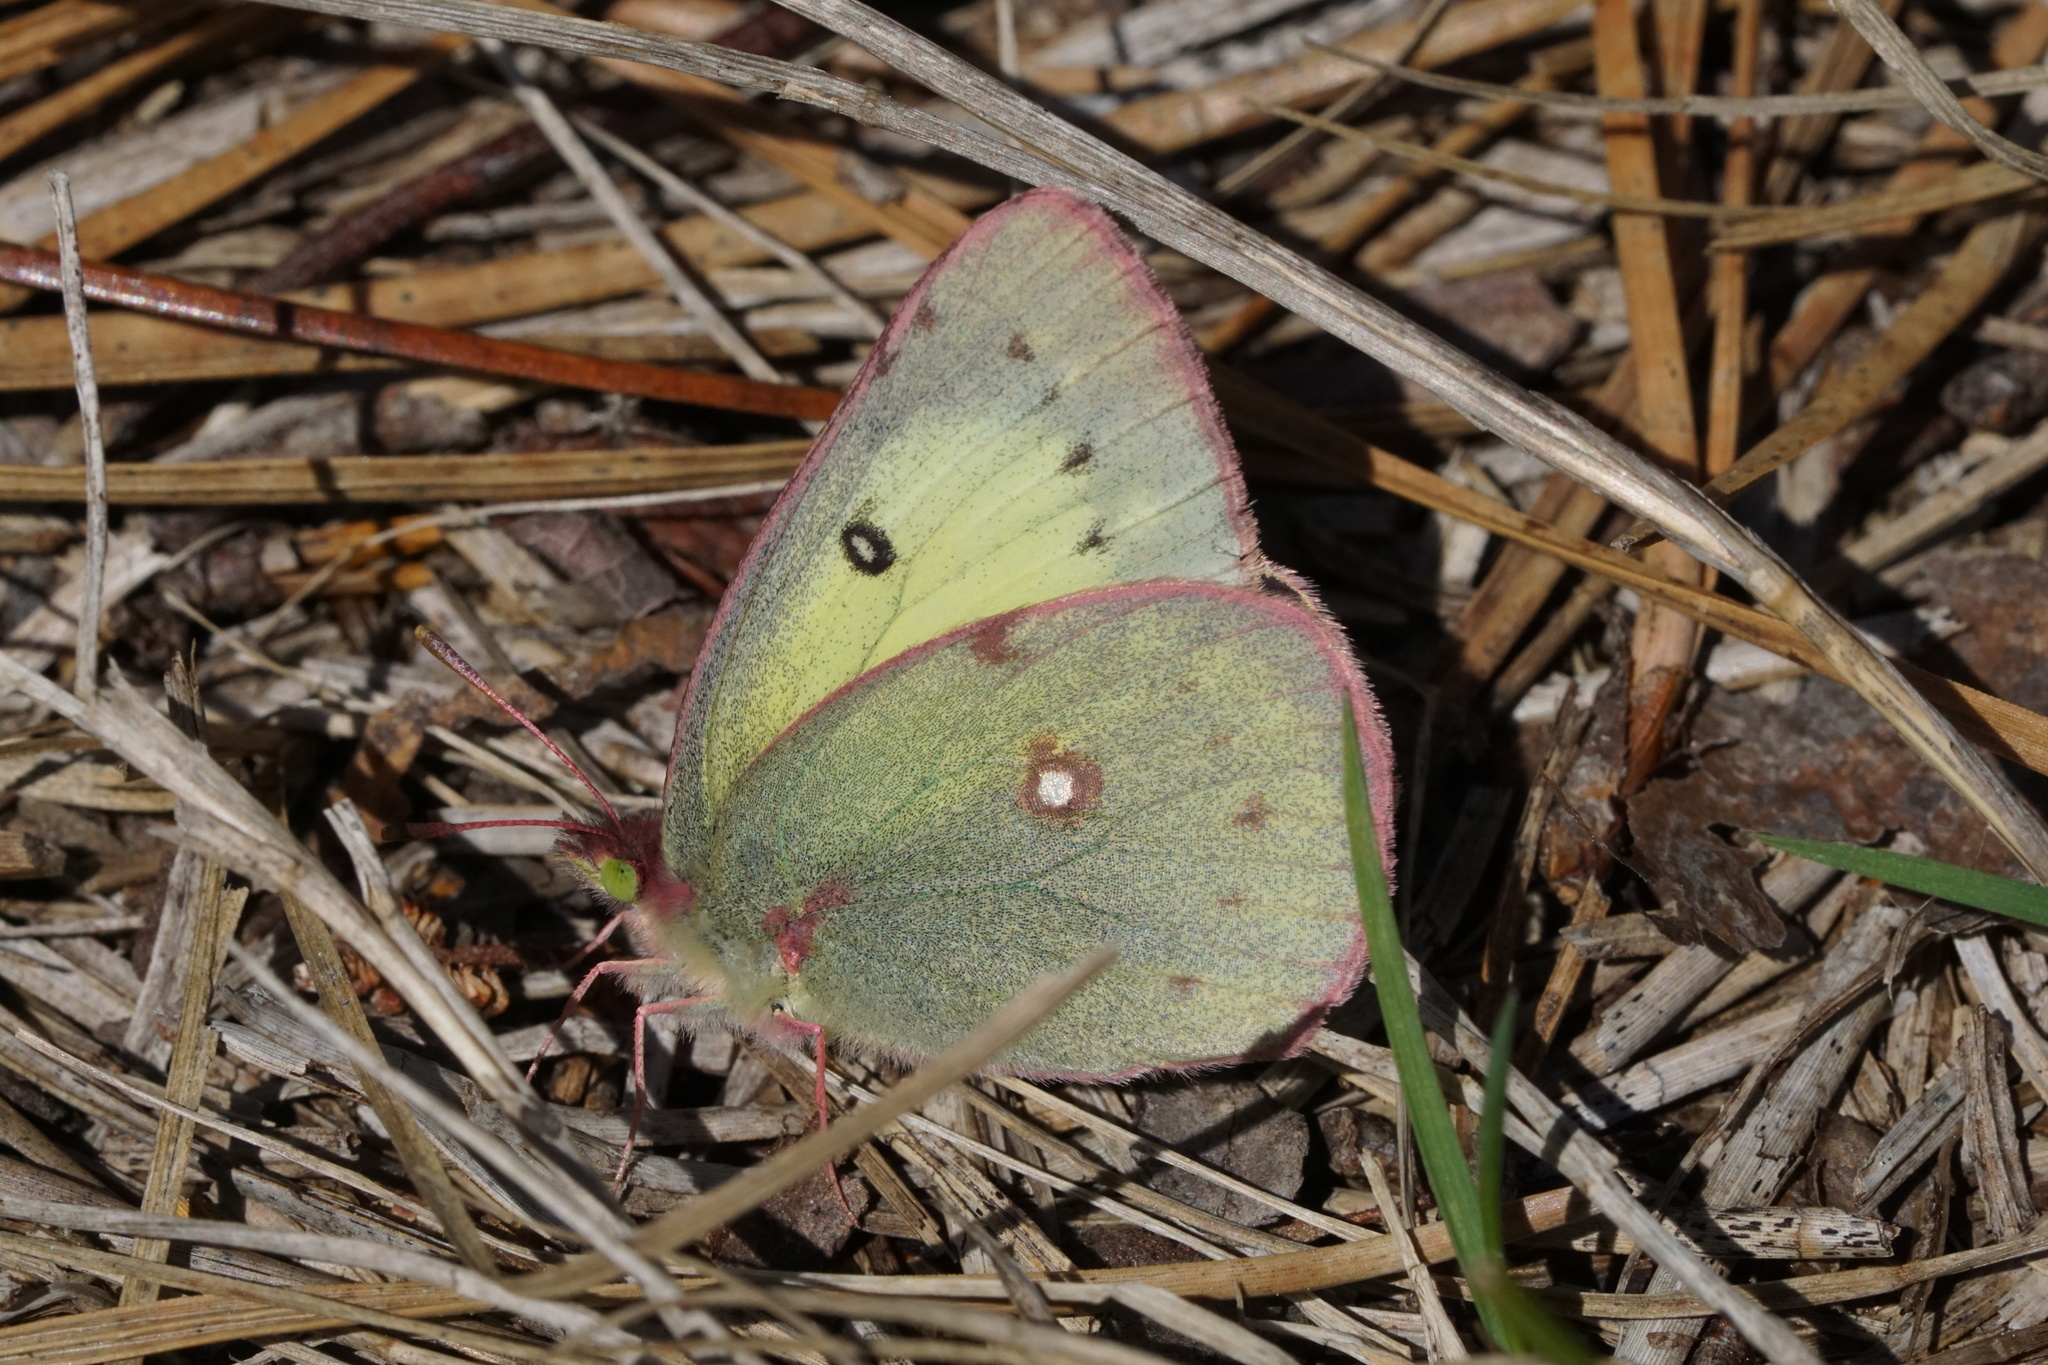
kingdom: Animalia
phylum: Arthropoda
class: Insecta
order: Lepidoptera
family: Pieridae
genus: Colias
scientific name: Colias philodice
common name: Clouded sulphur
